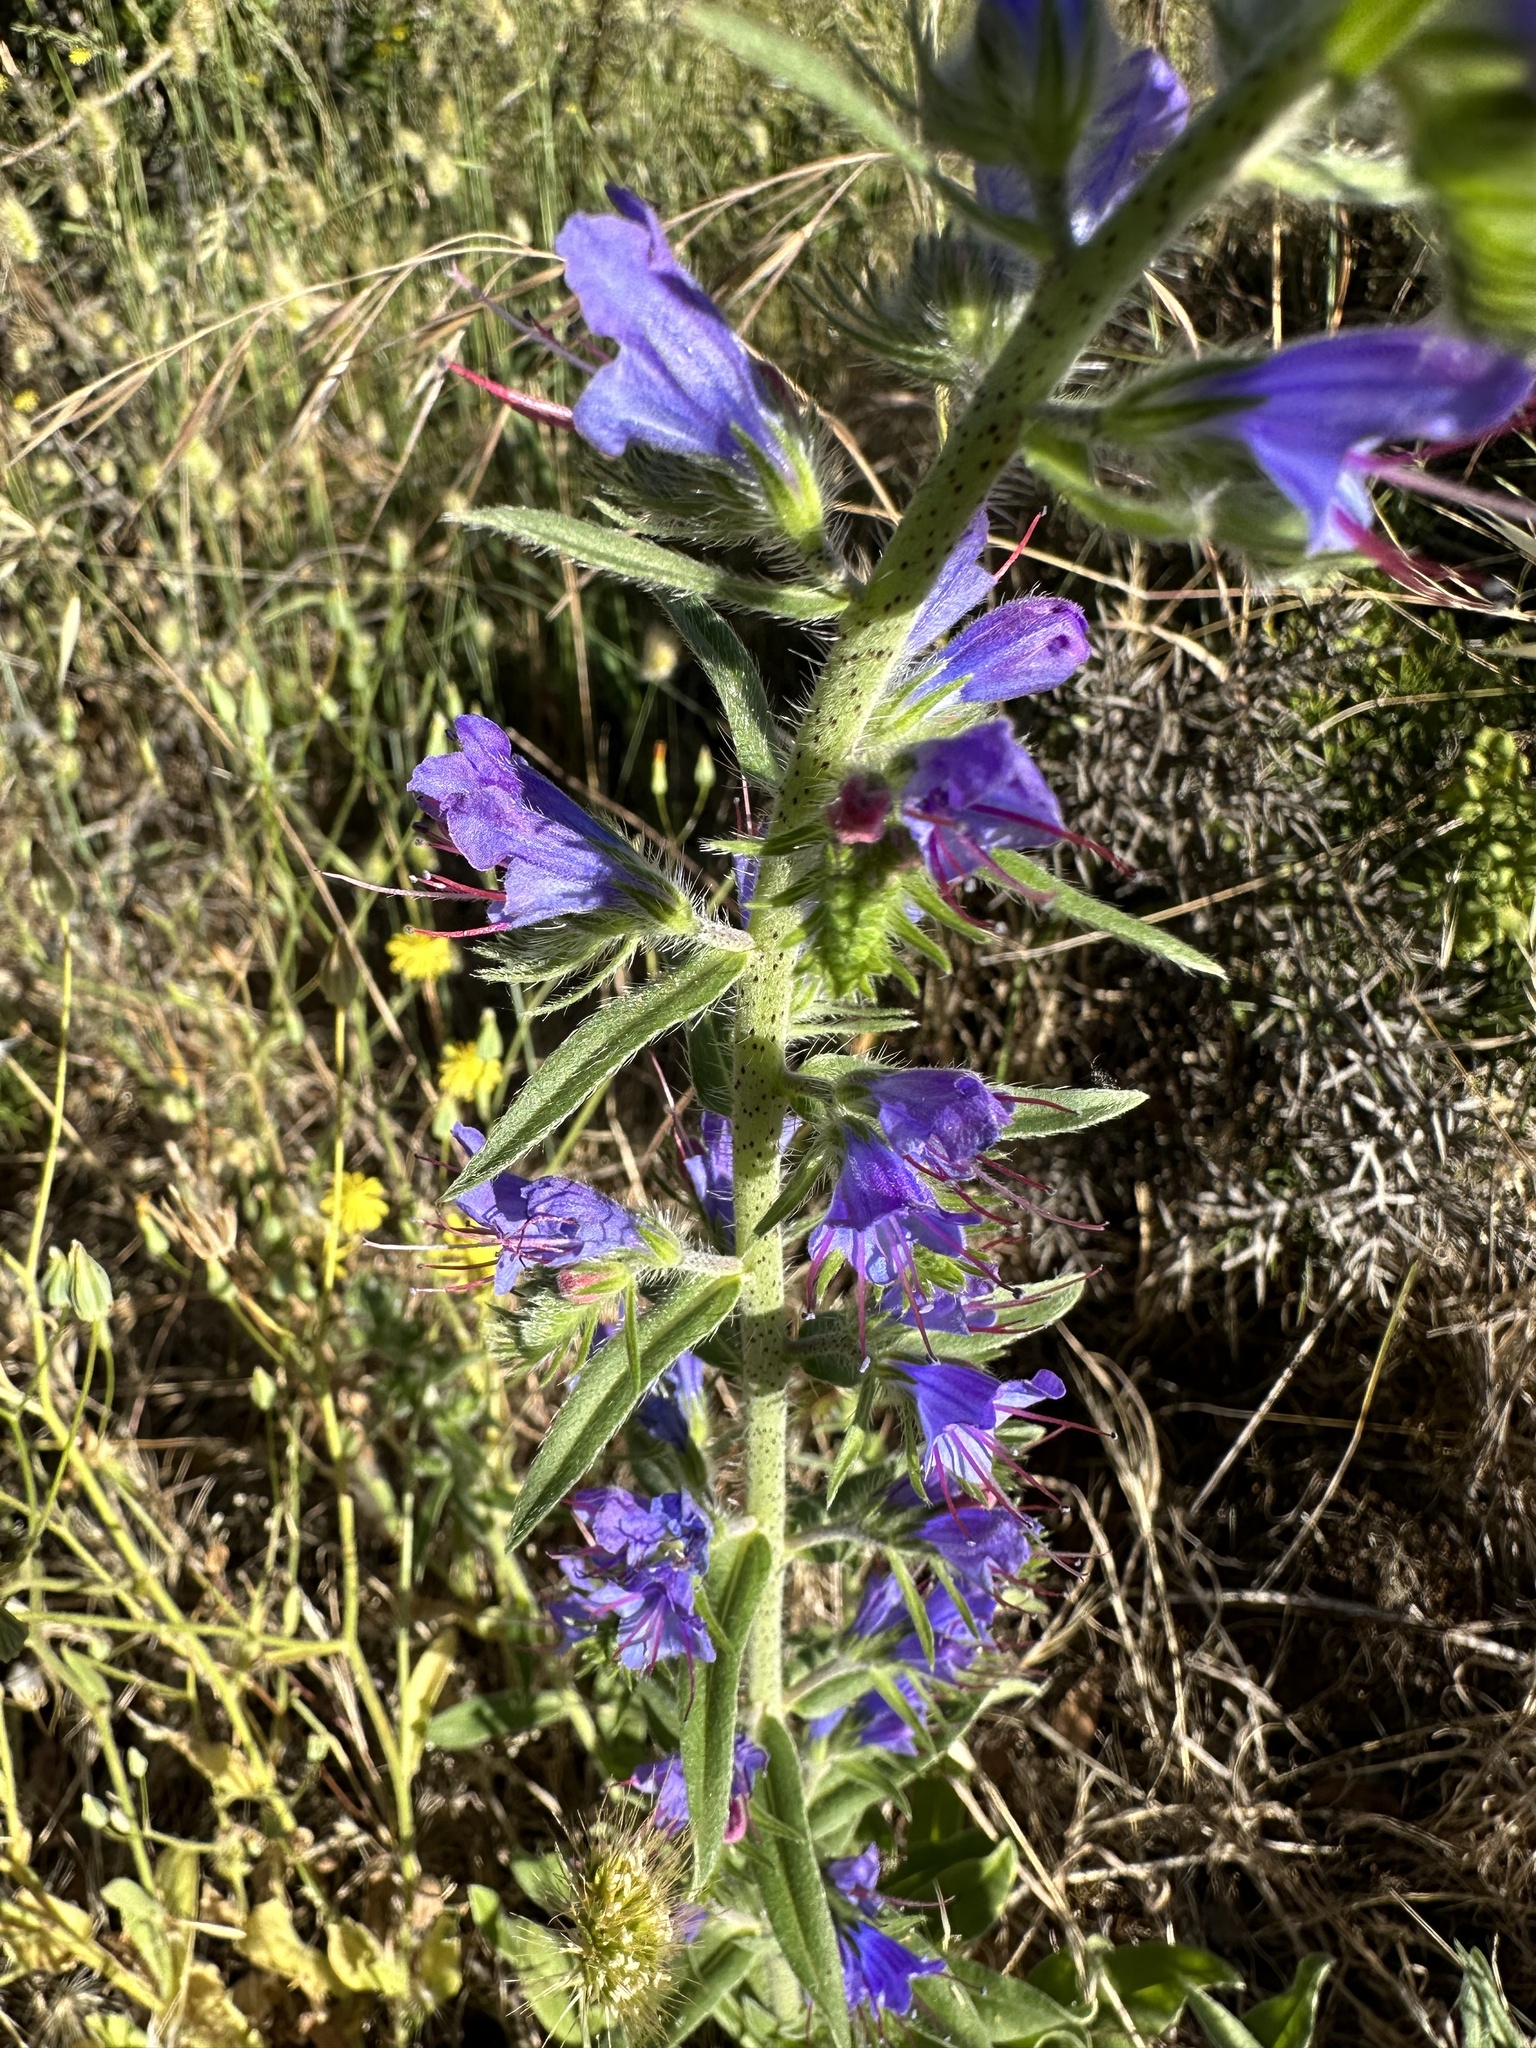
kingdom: Plantae
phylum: Tracheophyta
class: Magnoliopsida
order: Boraginales
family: Boraginaceae
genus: Echium
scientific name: Echium vulgare
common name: Common viper's bugloss
